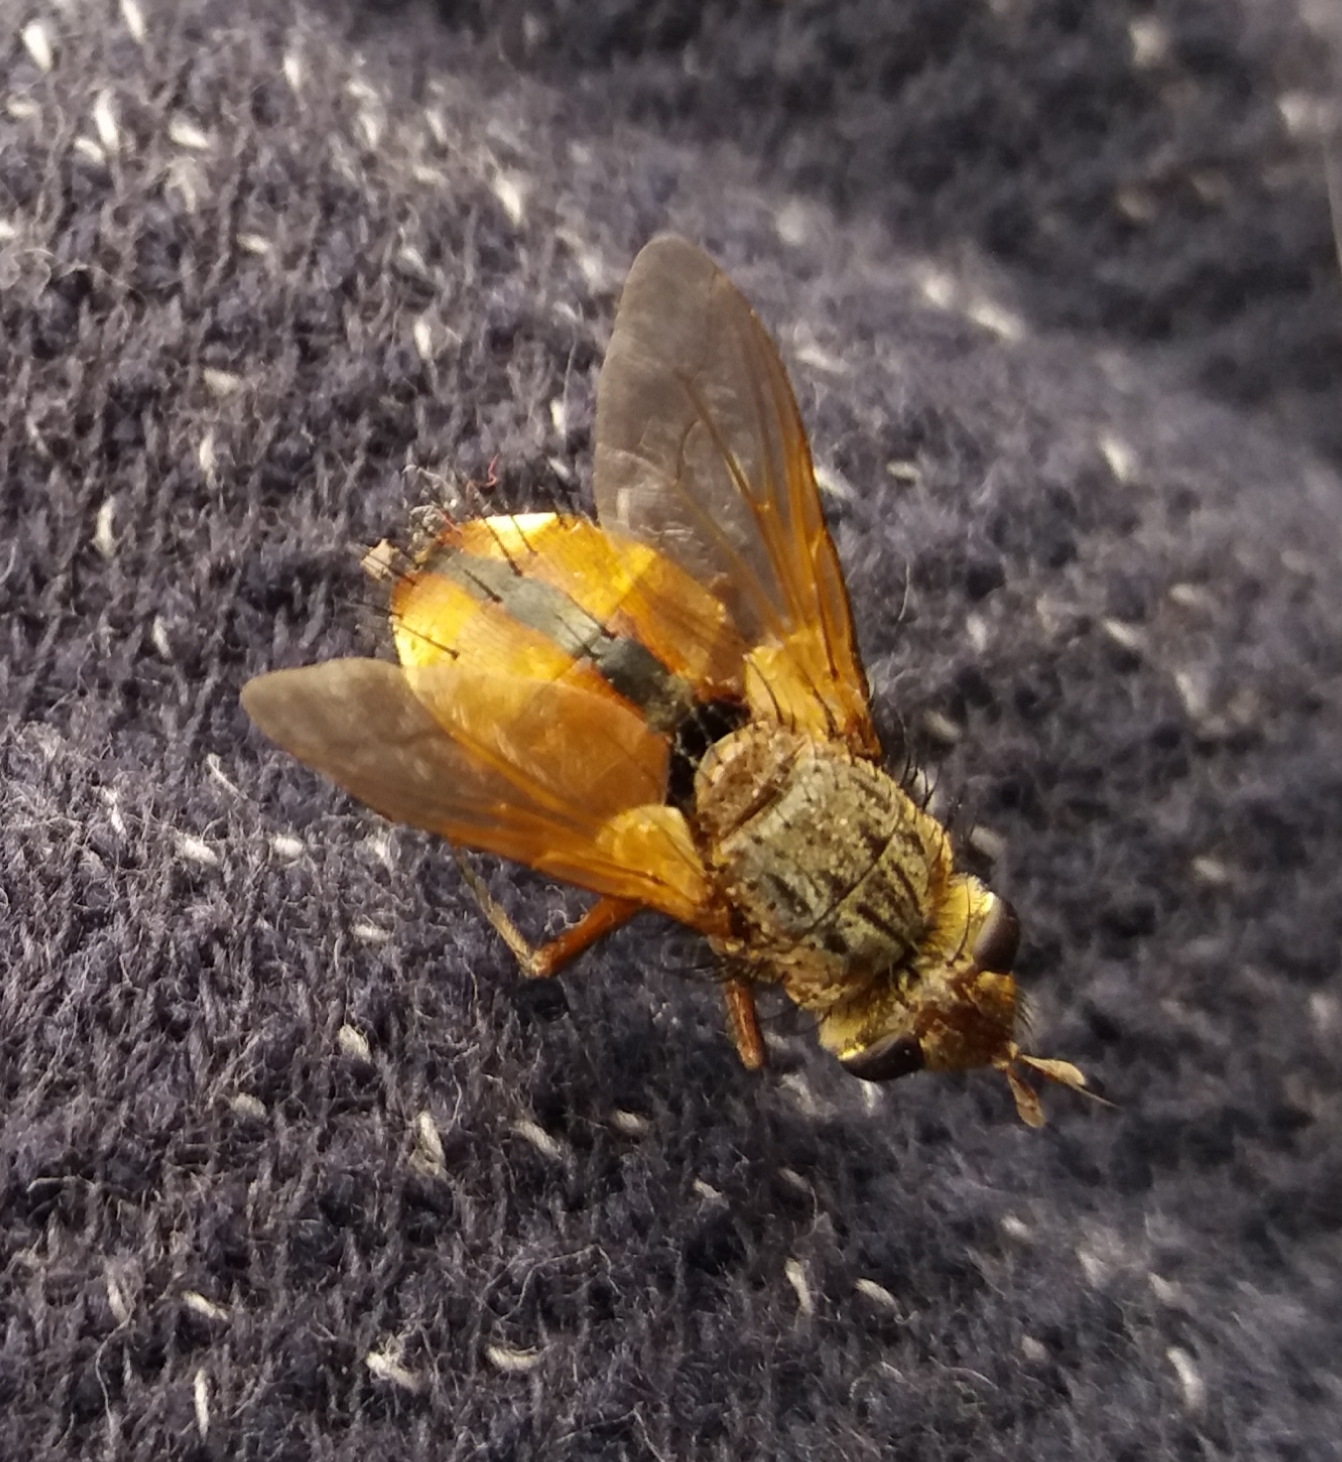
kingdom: Animalia
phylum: Arthropoda
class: Insecta
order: Diptera
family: Tachinidae
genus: Tachina
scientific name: Tachina fera
